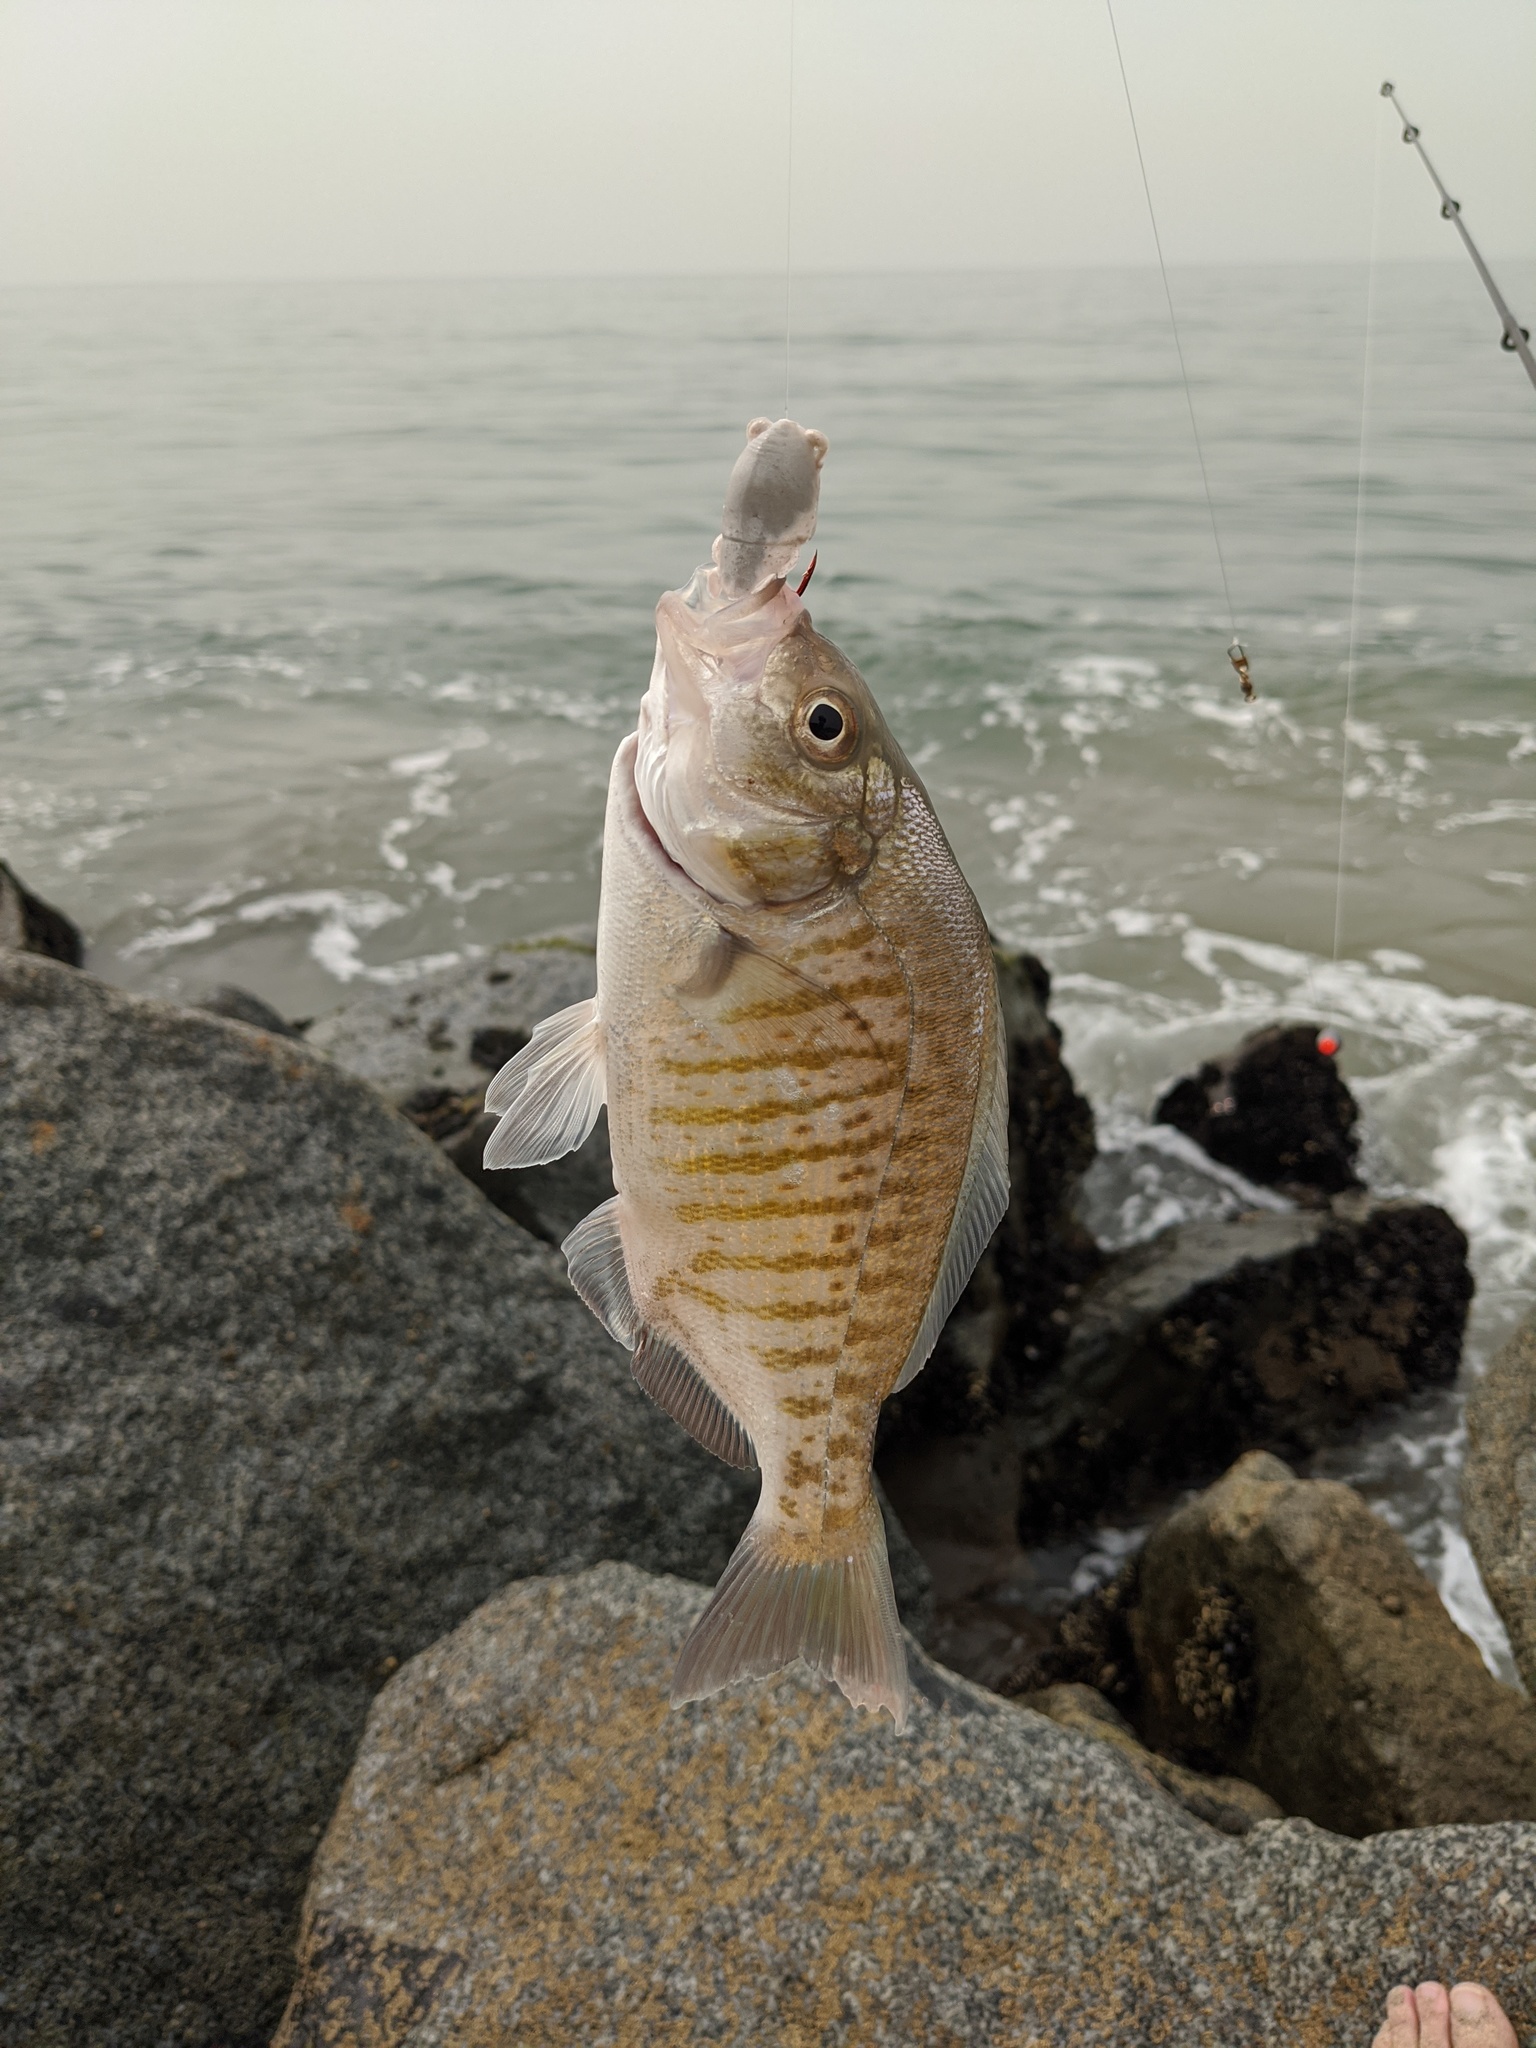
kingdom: Animalia
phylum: Chordata
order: Perciformes
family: Embiotocidae
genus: Amphistichus
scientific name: Amphistichus argenteus
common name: Barred surfperch
